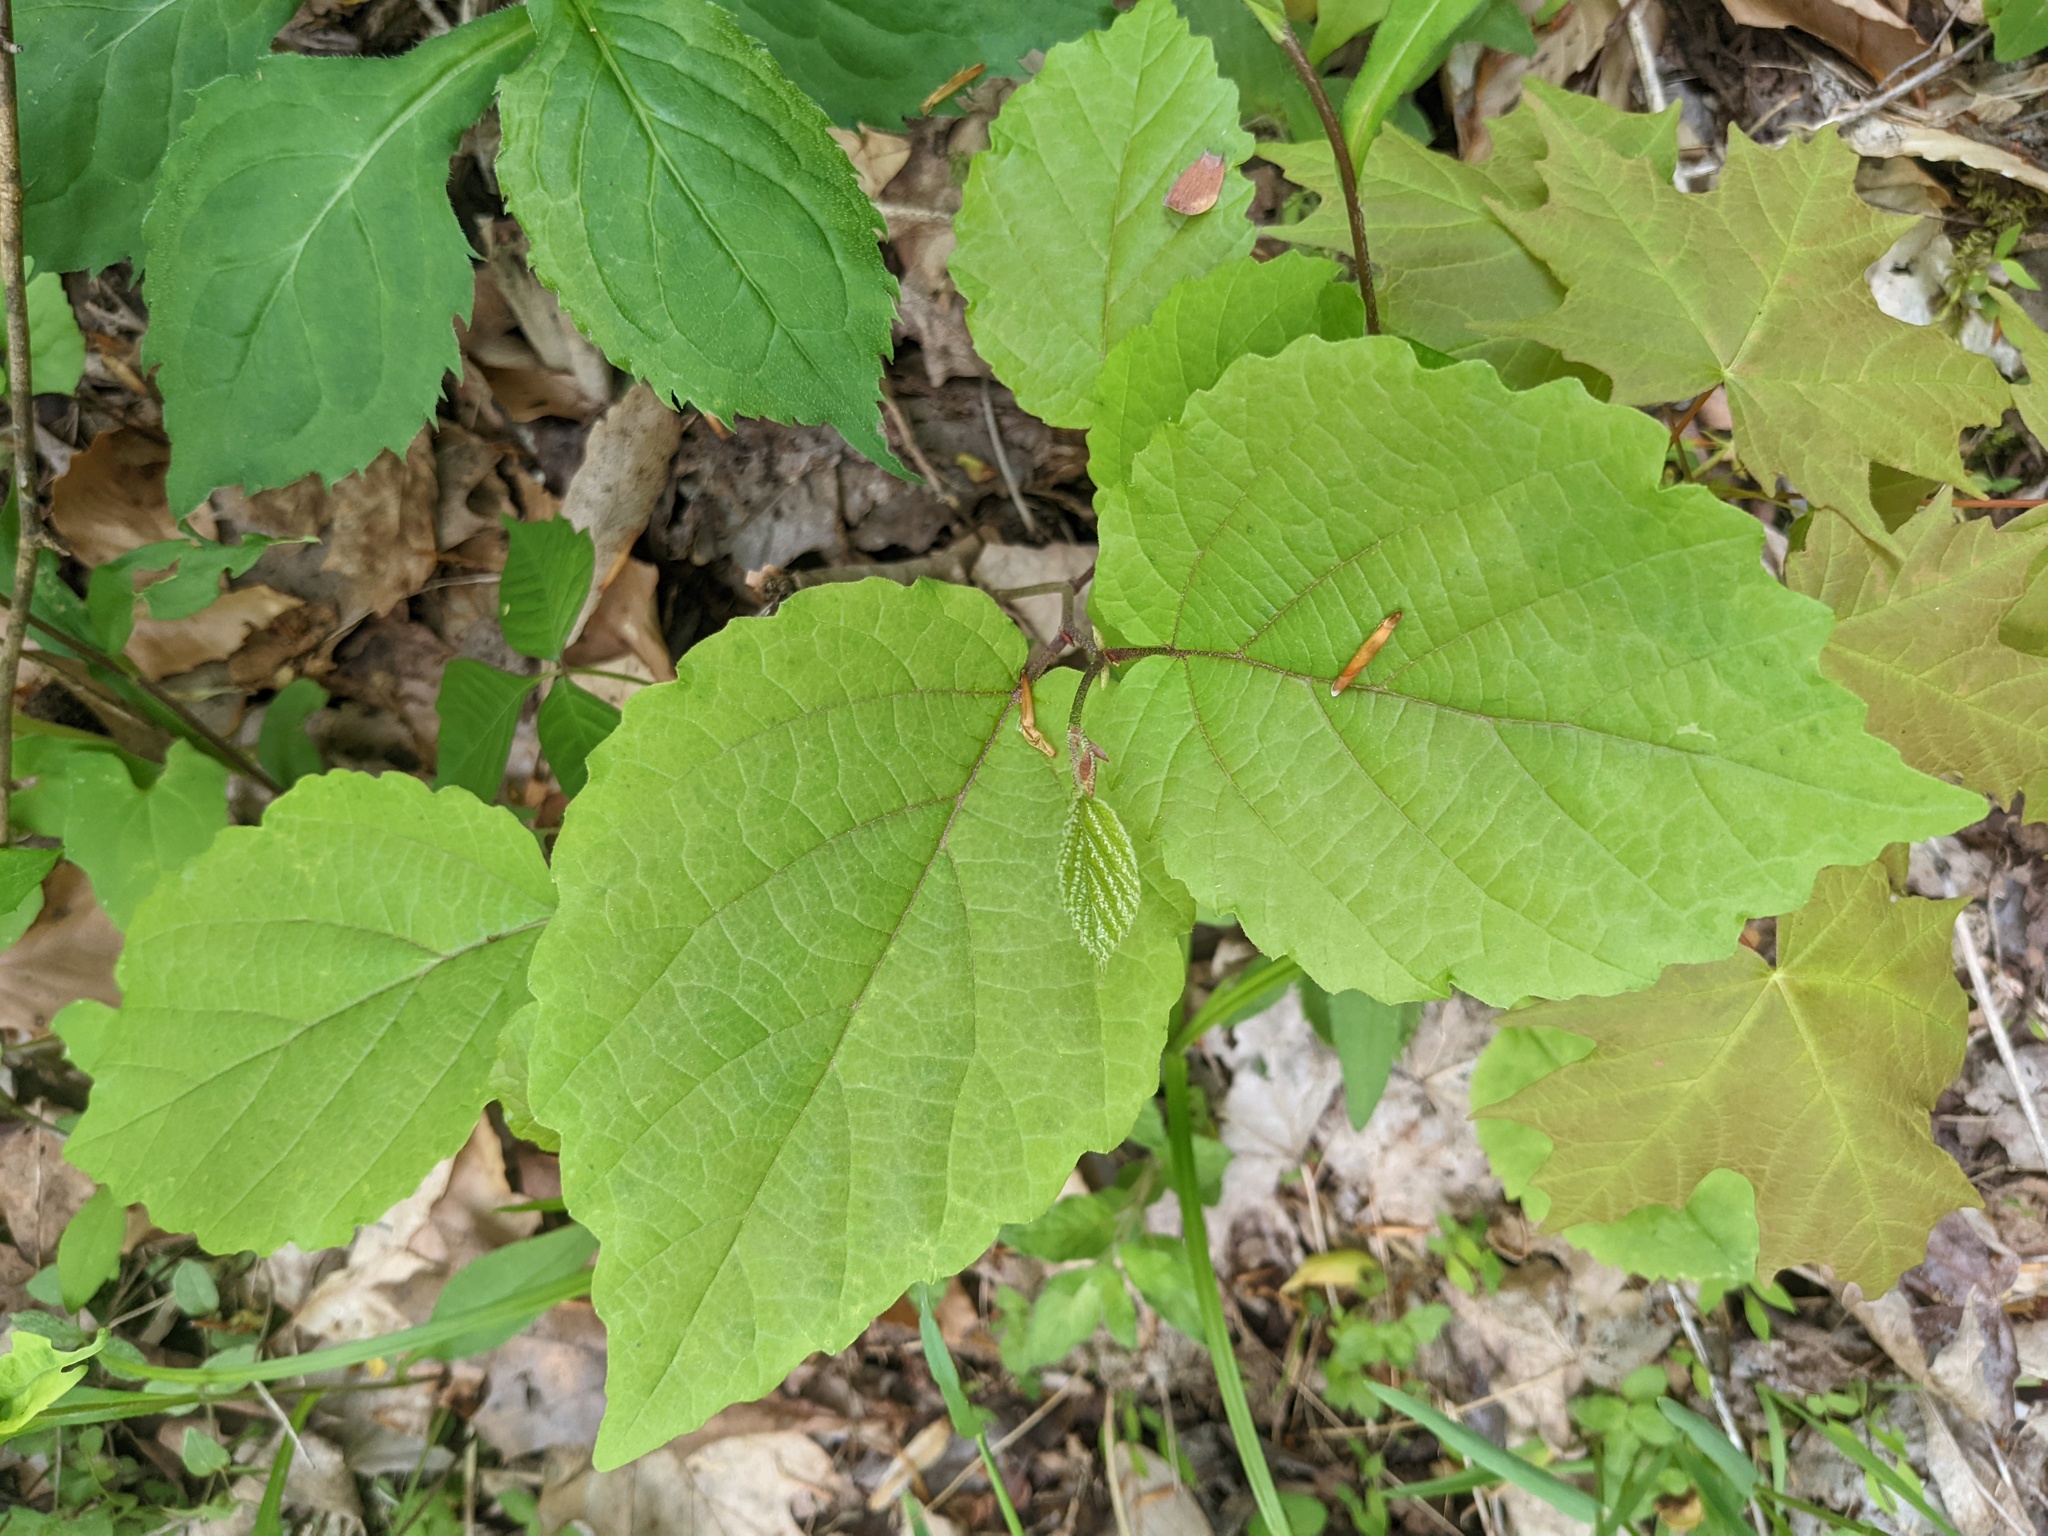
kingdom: Plantae
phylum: Tracheophyta
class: Magnoliopsida
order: Saxifragales
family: Hamamelidaceae
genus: Hamamelis
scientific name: Hamamelis virginiana
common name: Witch-hazel
